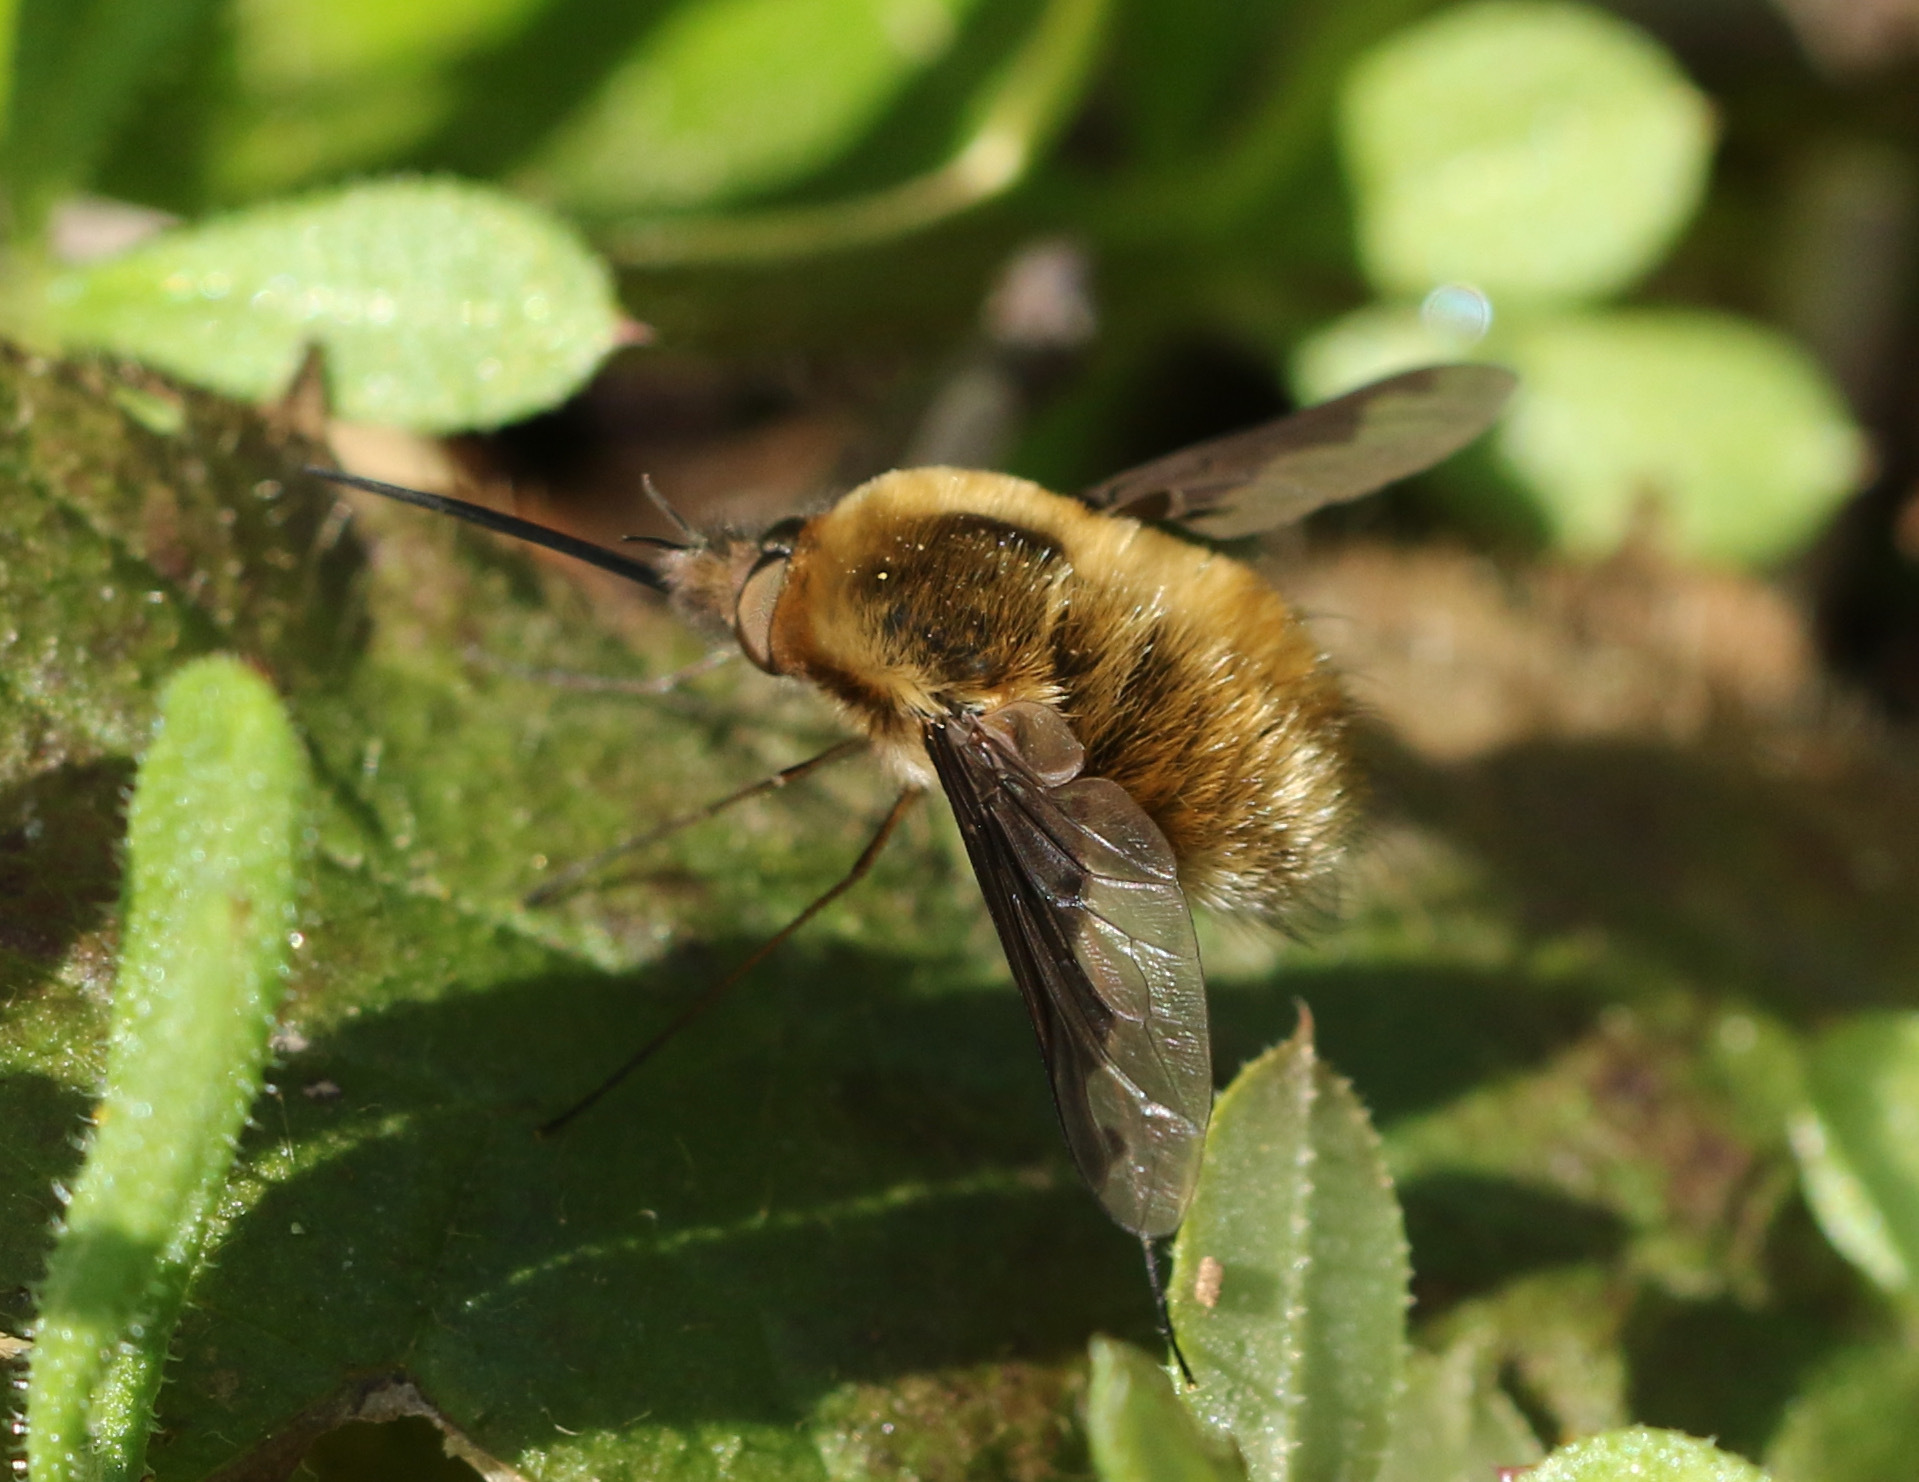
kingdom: Animalia
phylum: Arthropoda
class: Insecta
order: Diptera
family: Bombyliidae
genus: Bombylius
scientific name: Bombylius major
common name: Bee fly
